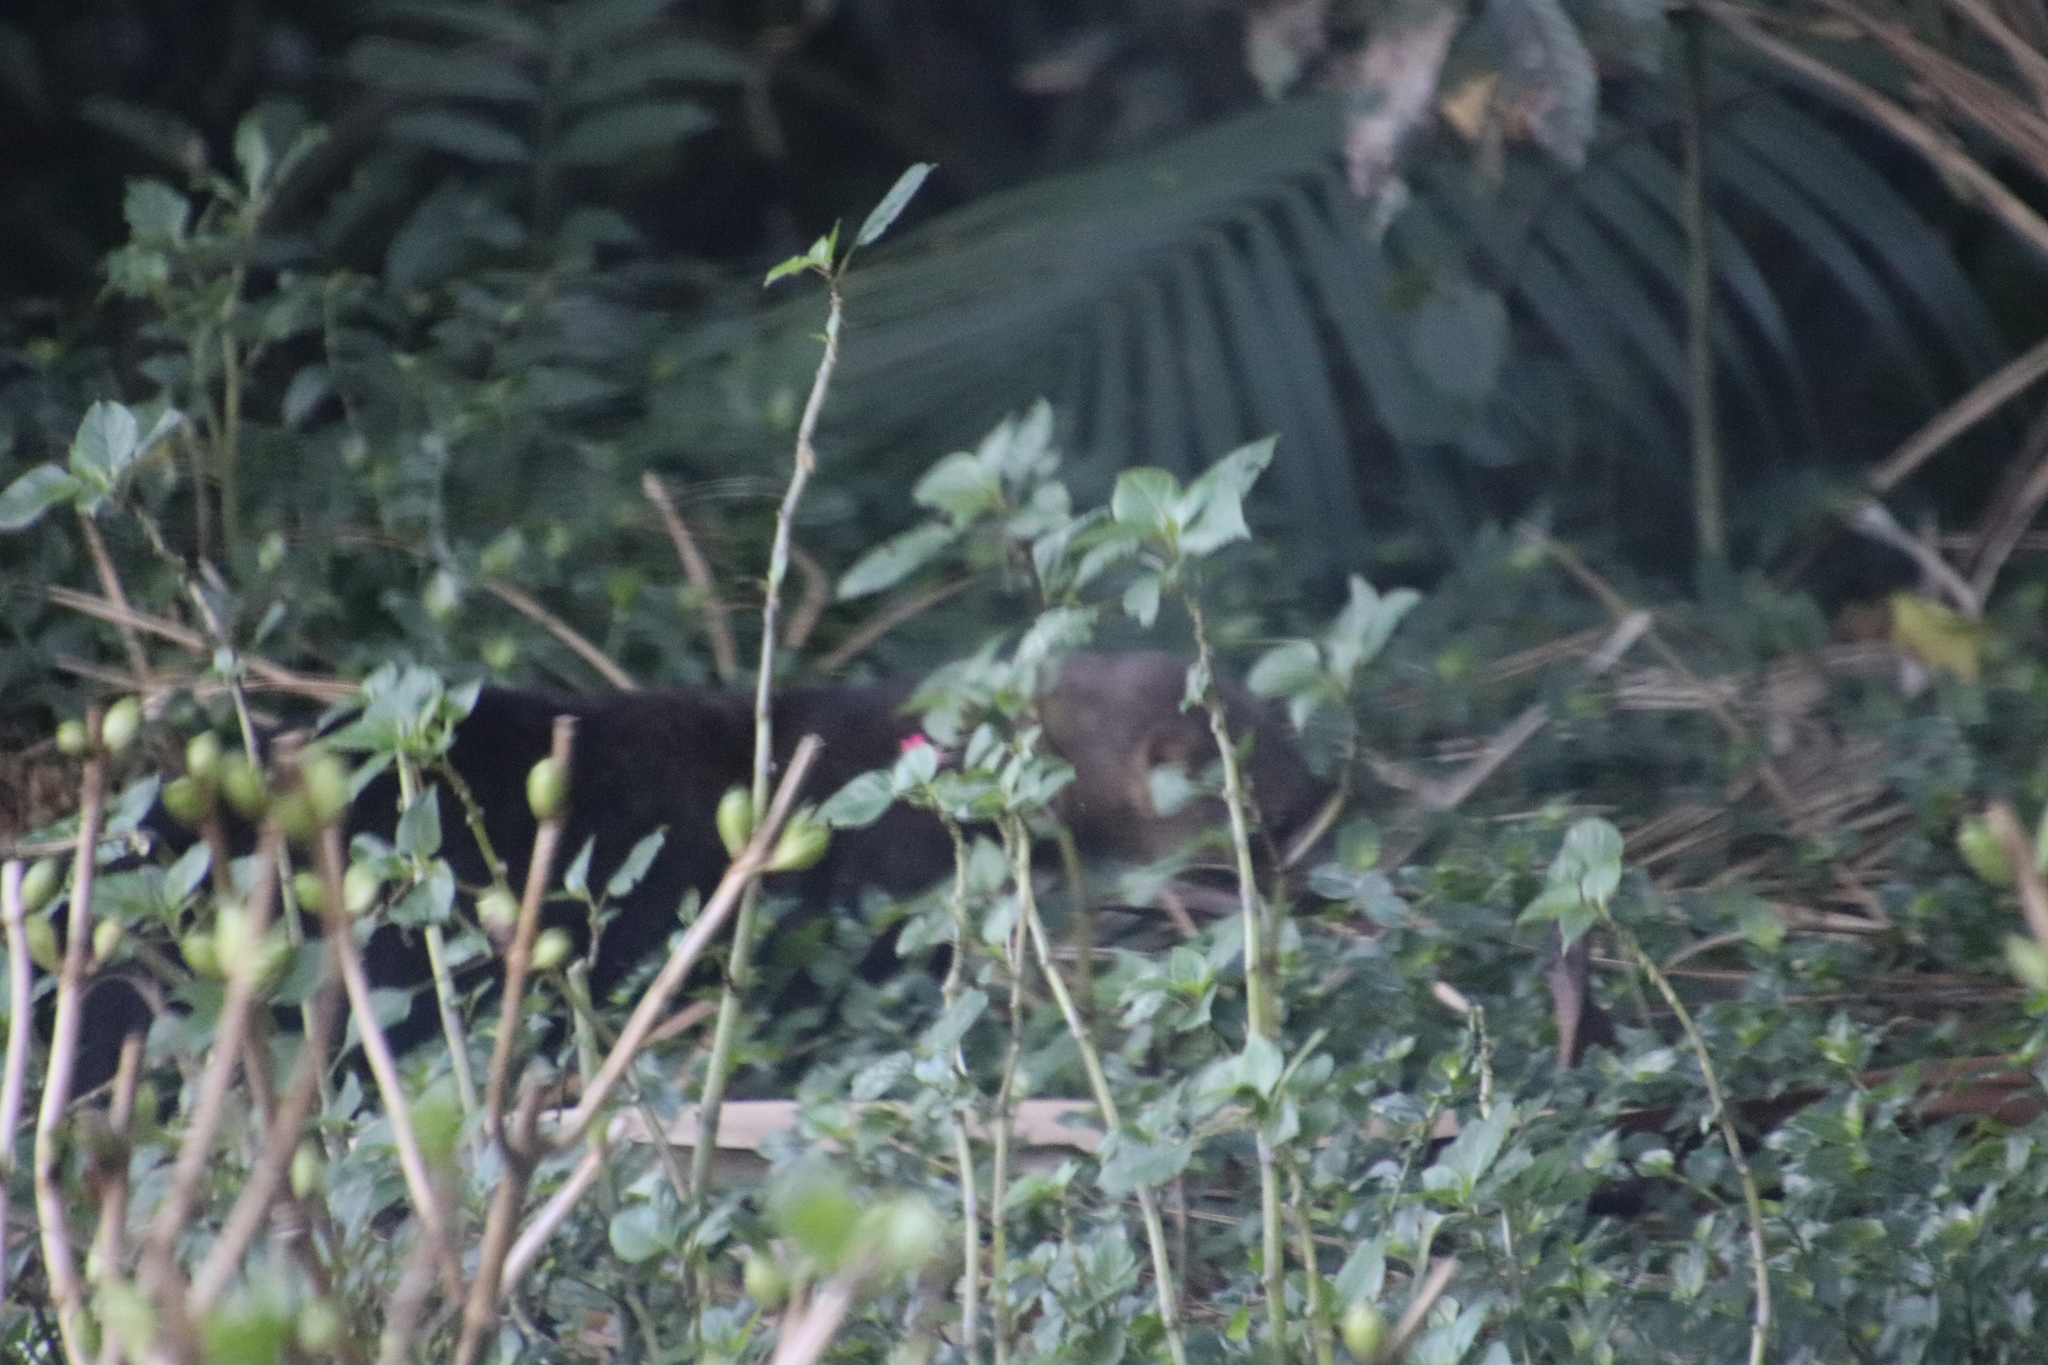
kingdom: Animalia
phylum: Chordata
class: Mammalia
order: Carnivora
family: Mustelidae
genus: Eira
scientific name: Eira barbara
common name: Tayra
